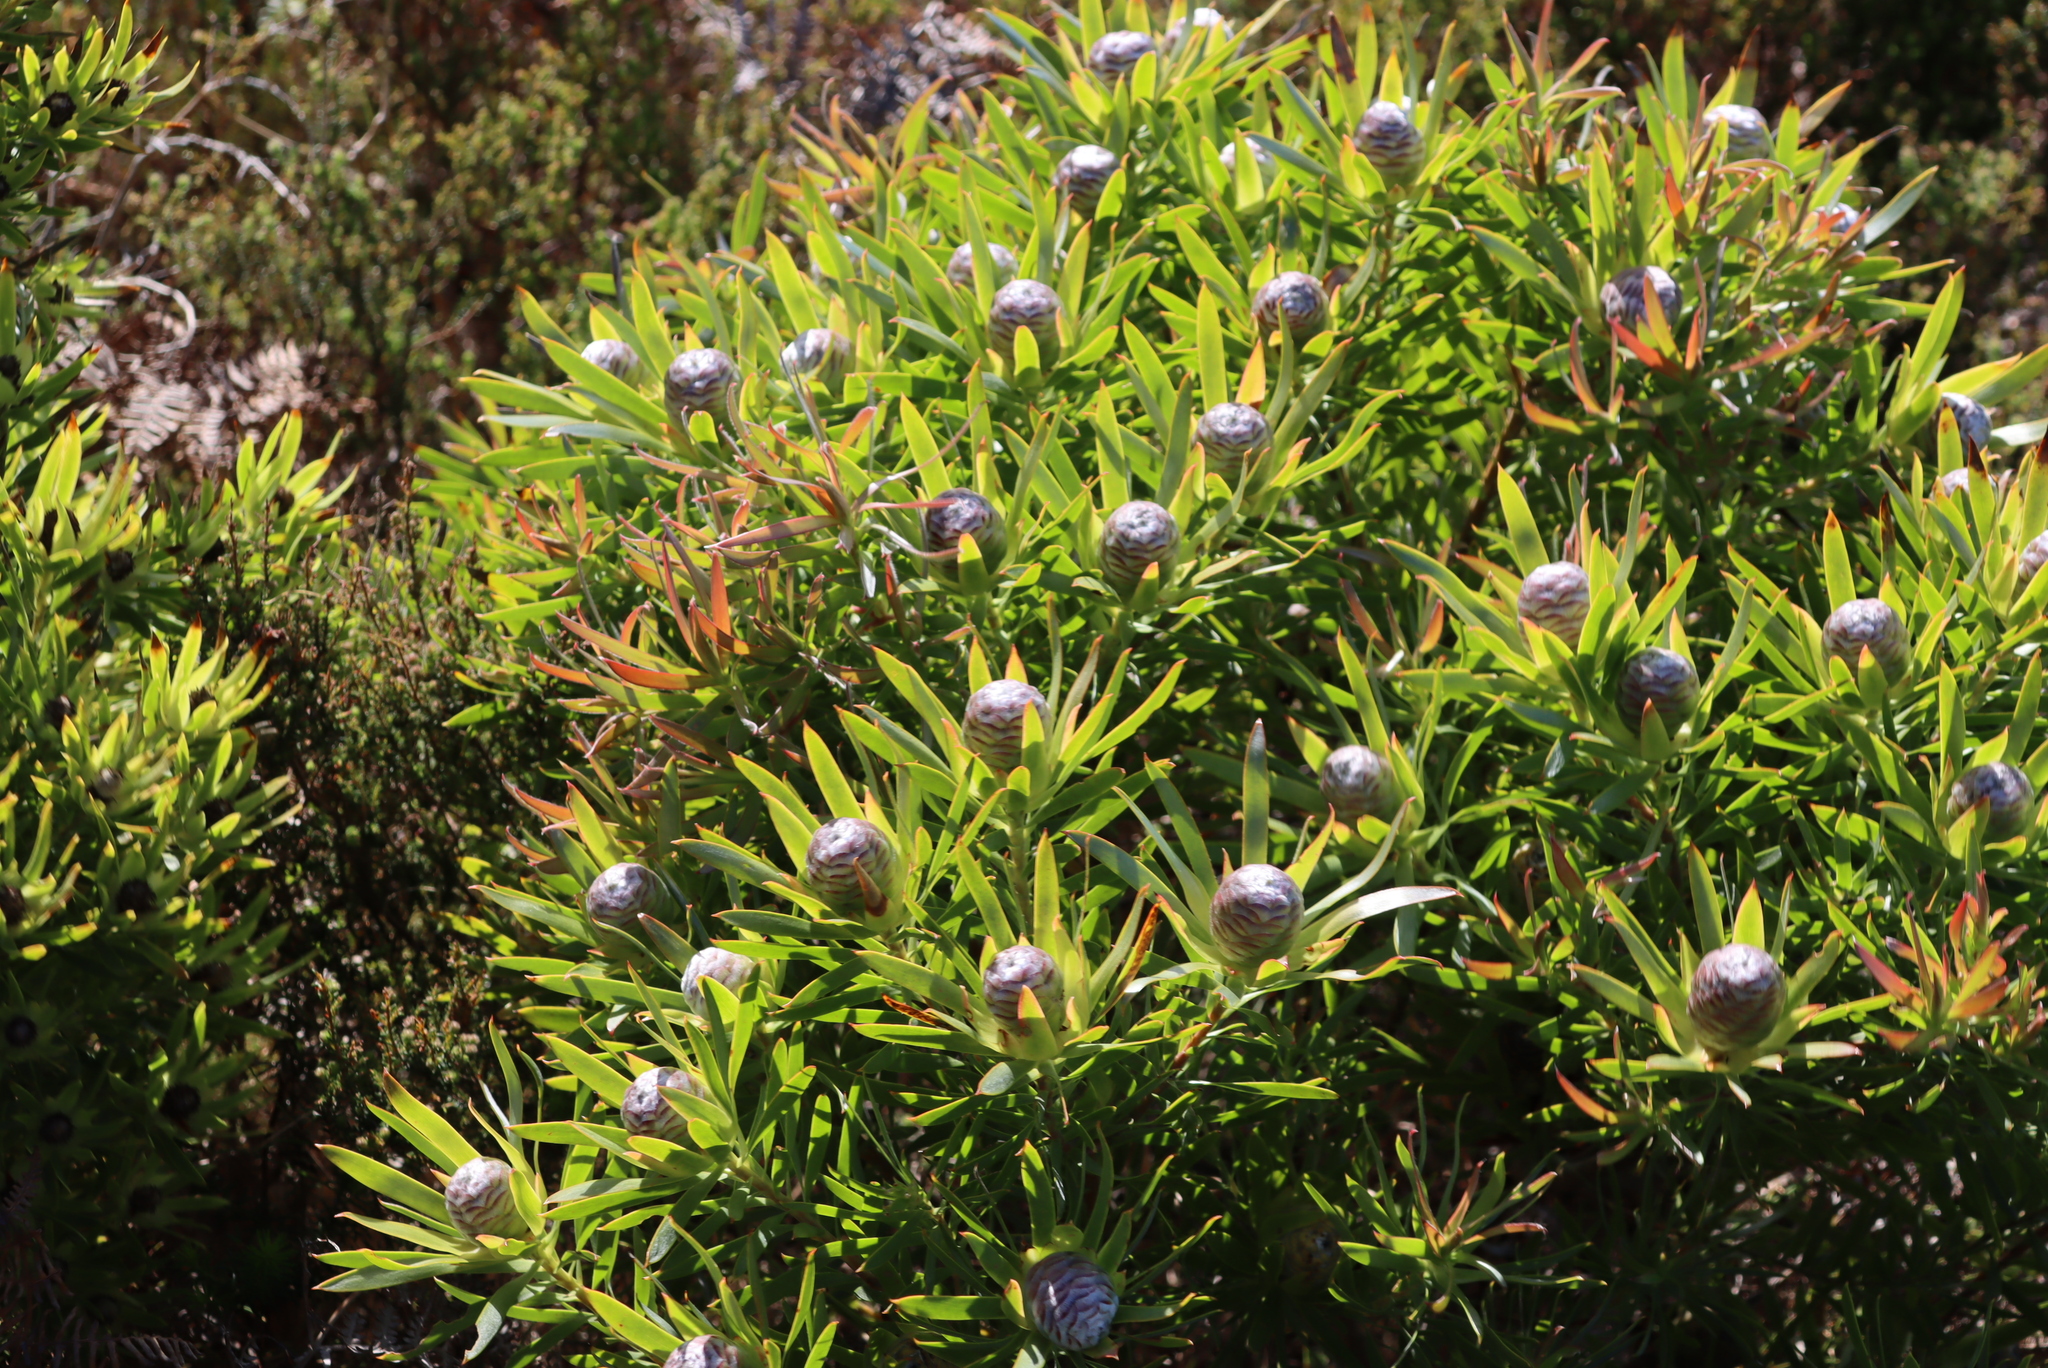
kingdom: Plantae
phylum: Tracheophyta
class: Magnoliopsida
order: Proteales
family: Proteaceae
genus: Leucadendron
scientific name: Leucadendron xanthoconus
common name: Sickle-leaf conebush
